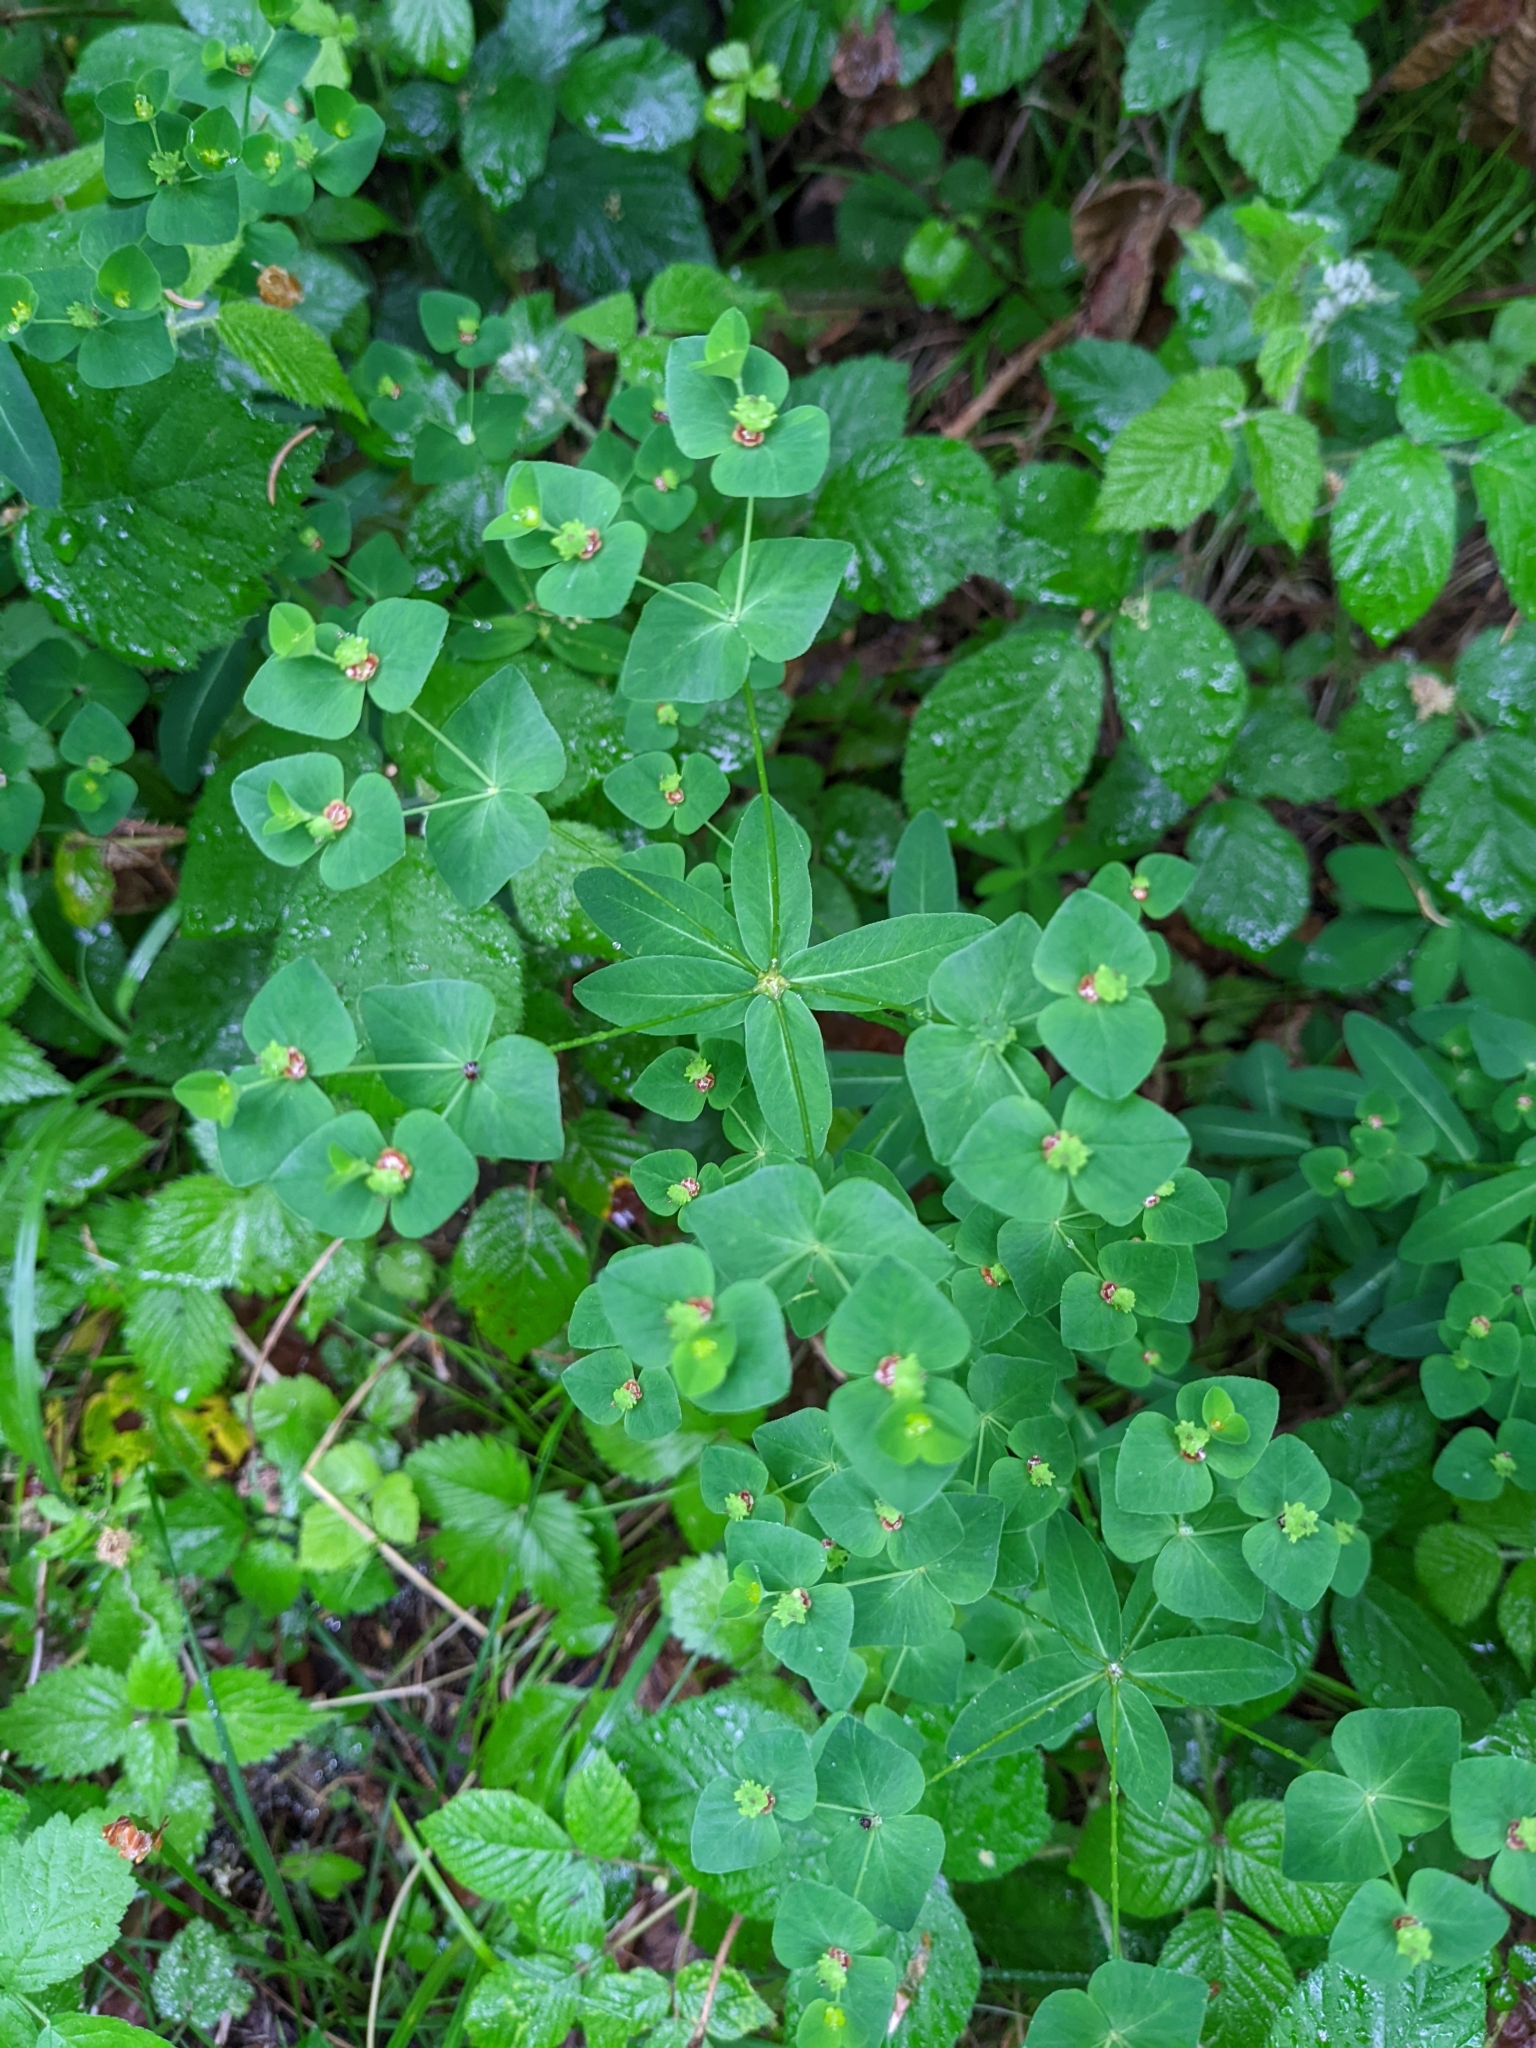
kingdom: Plantae
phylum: Tracheophyta
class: Magnoliopsida
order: Malpighiales
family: Euphorbiaceae
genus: Euphorbia
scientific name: Euphorbia dulcis
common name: Sweet spurge
